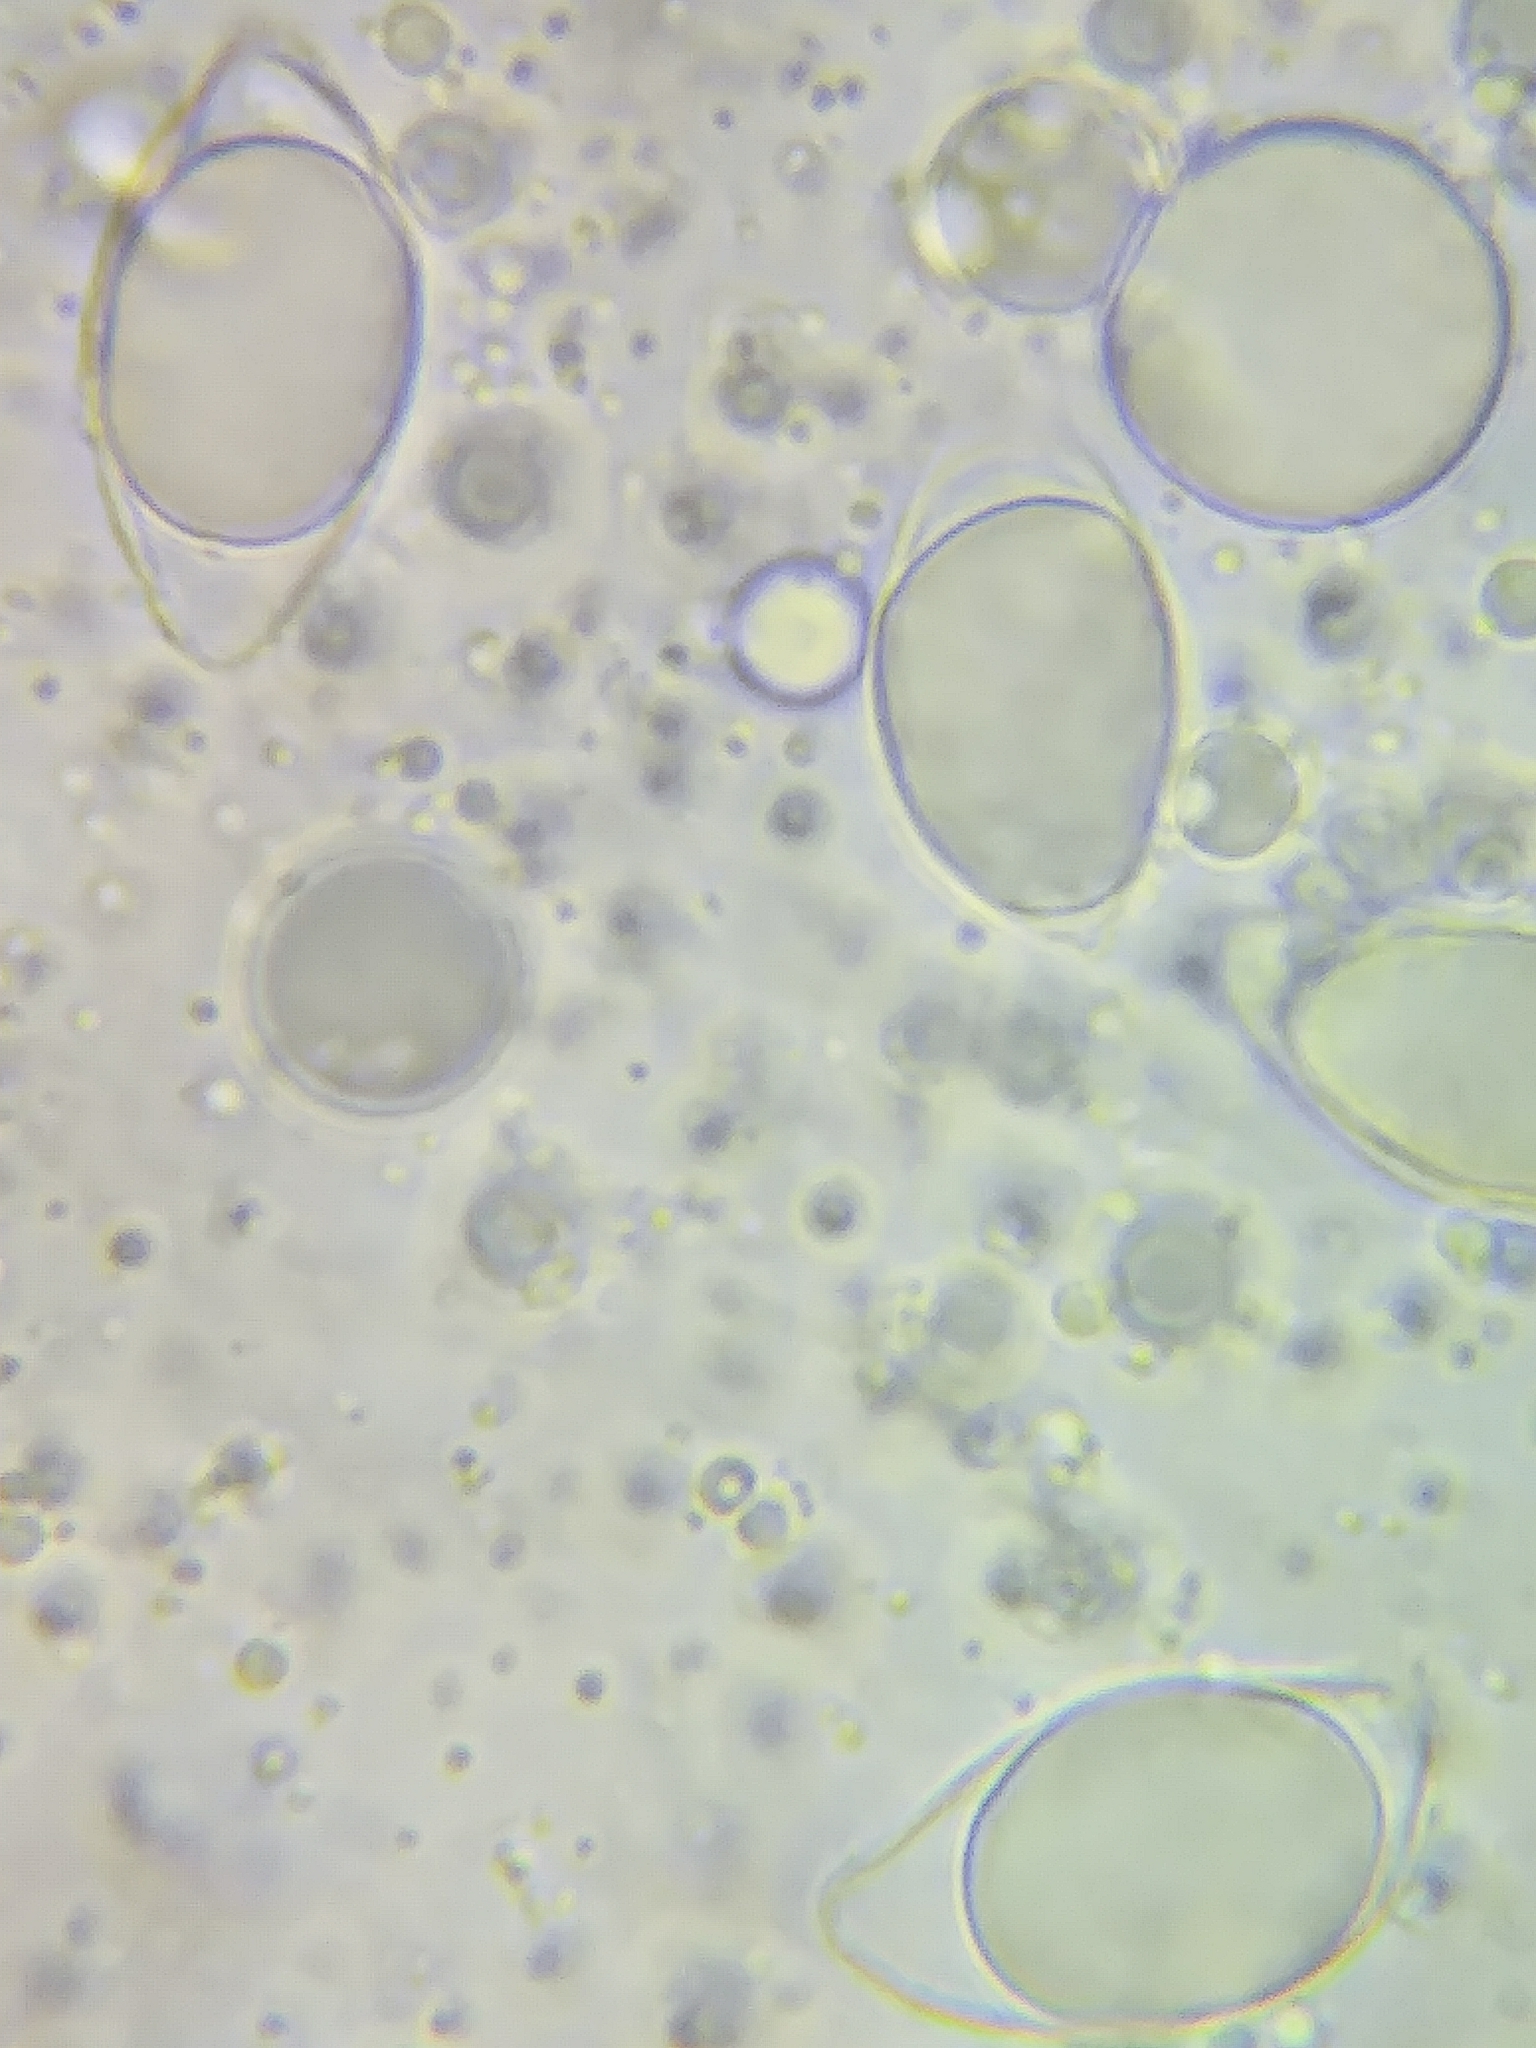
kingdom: Fungi
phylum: Basidiomycota
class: Agaricomycetes
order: Agaricales
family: Physalacriaceae
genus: Hymenopellis
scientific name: Hymenopellis limonispora
